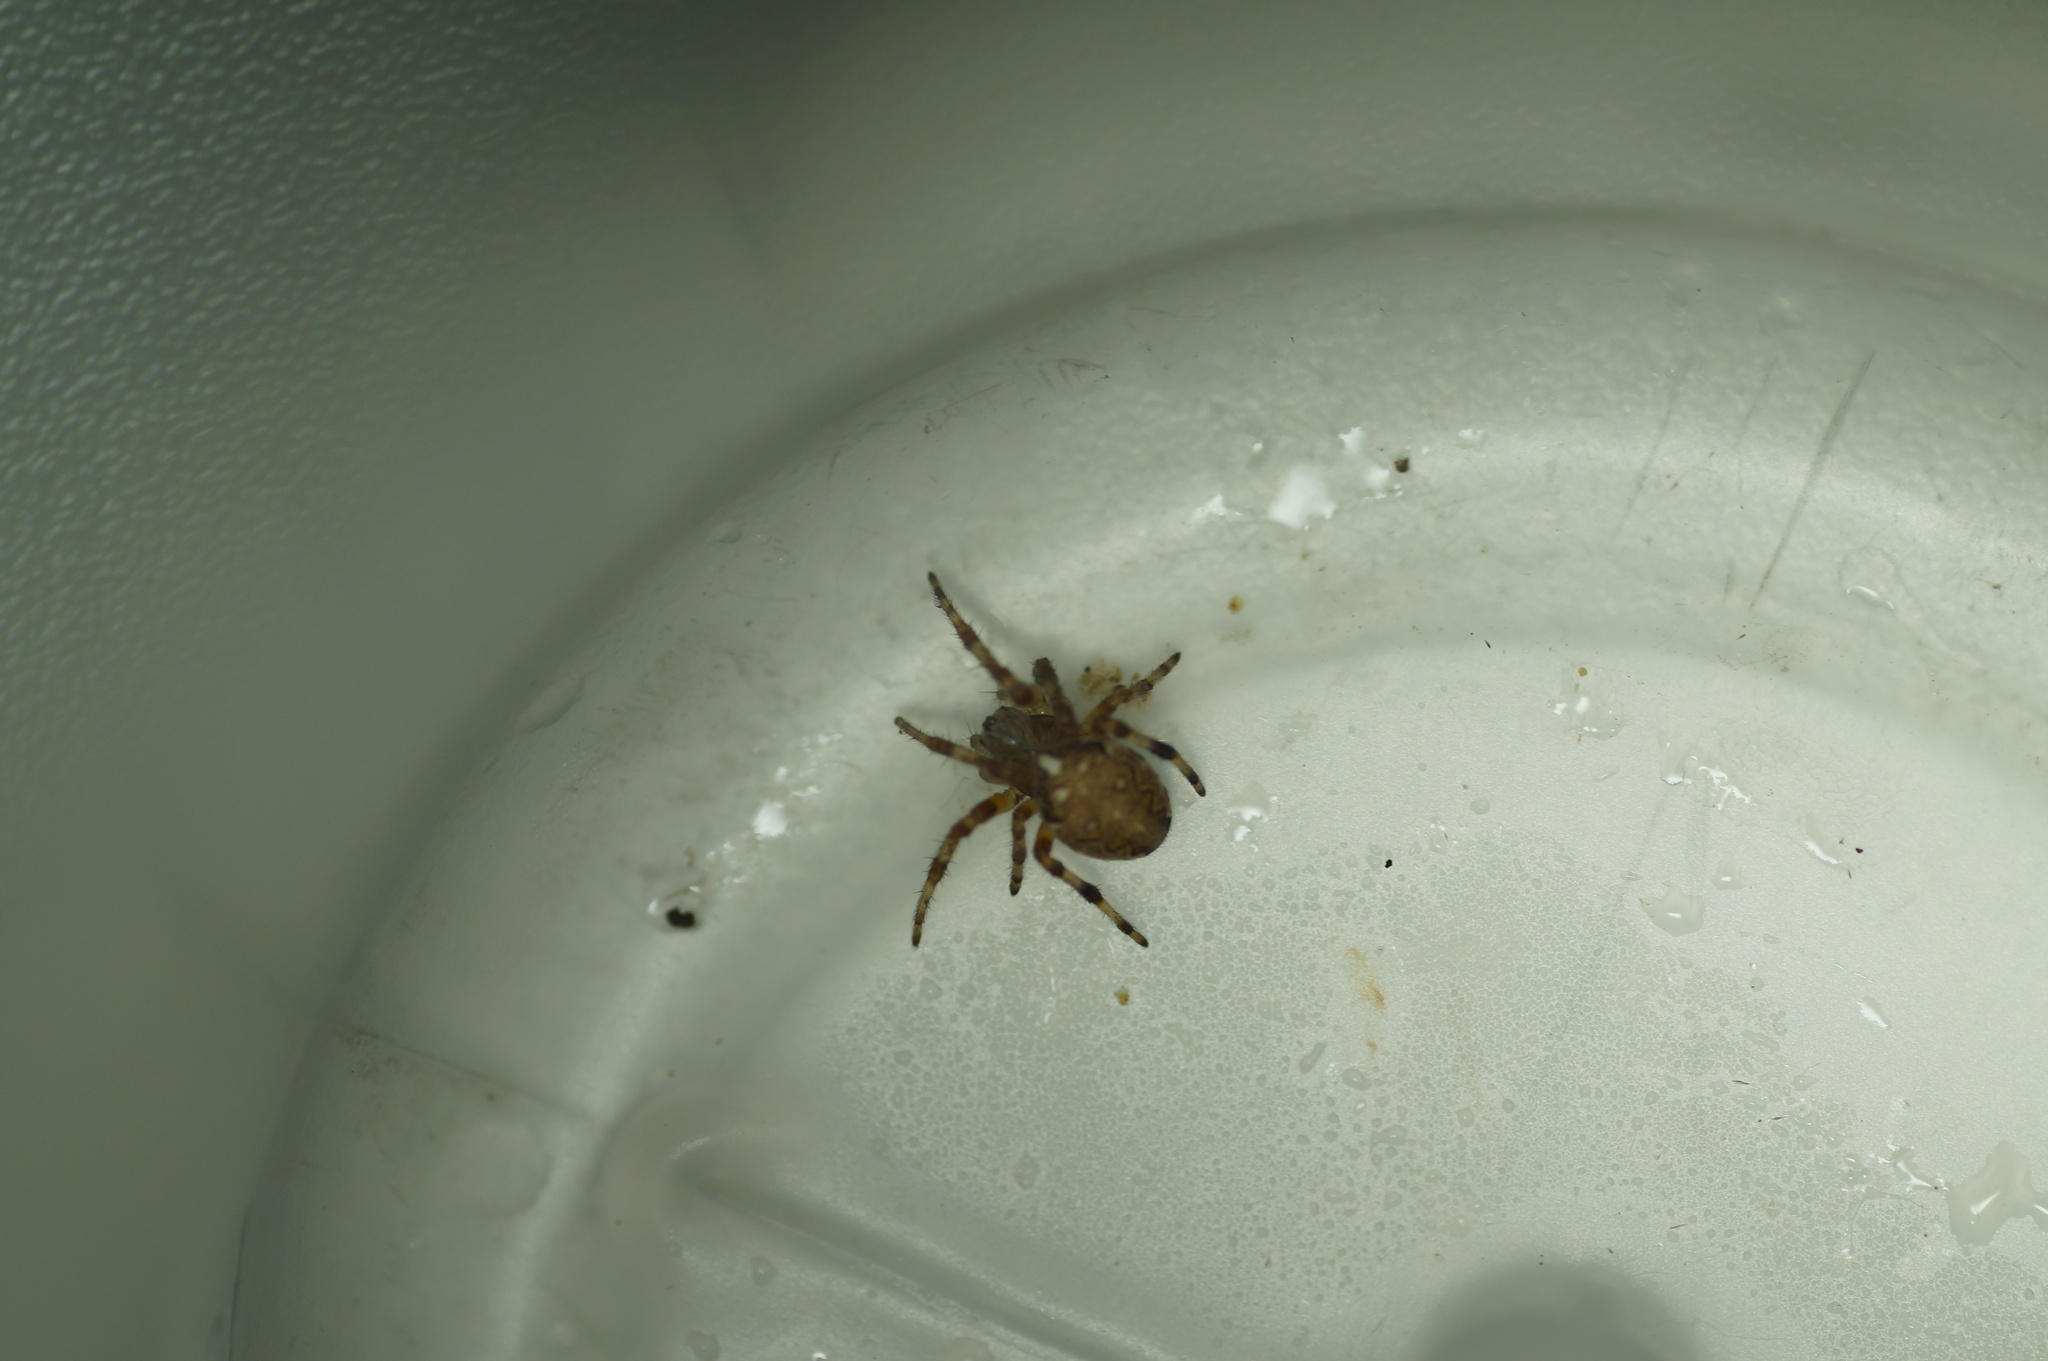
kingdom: Animalia
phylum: Arthropoda
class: Arachnida
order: Araneae
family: Araneidae
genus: Araneus
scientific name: Araneus marmoreus
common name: Marbled orbweaver
